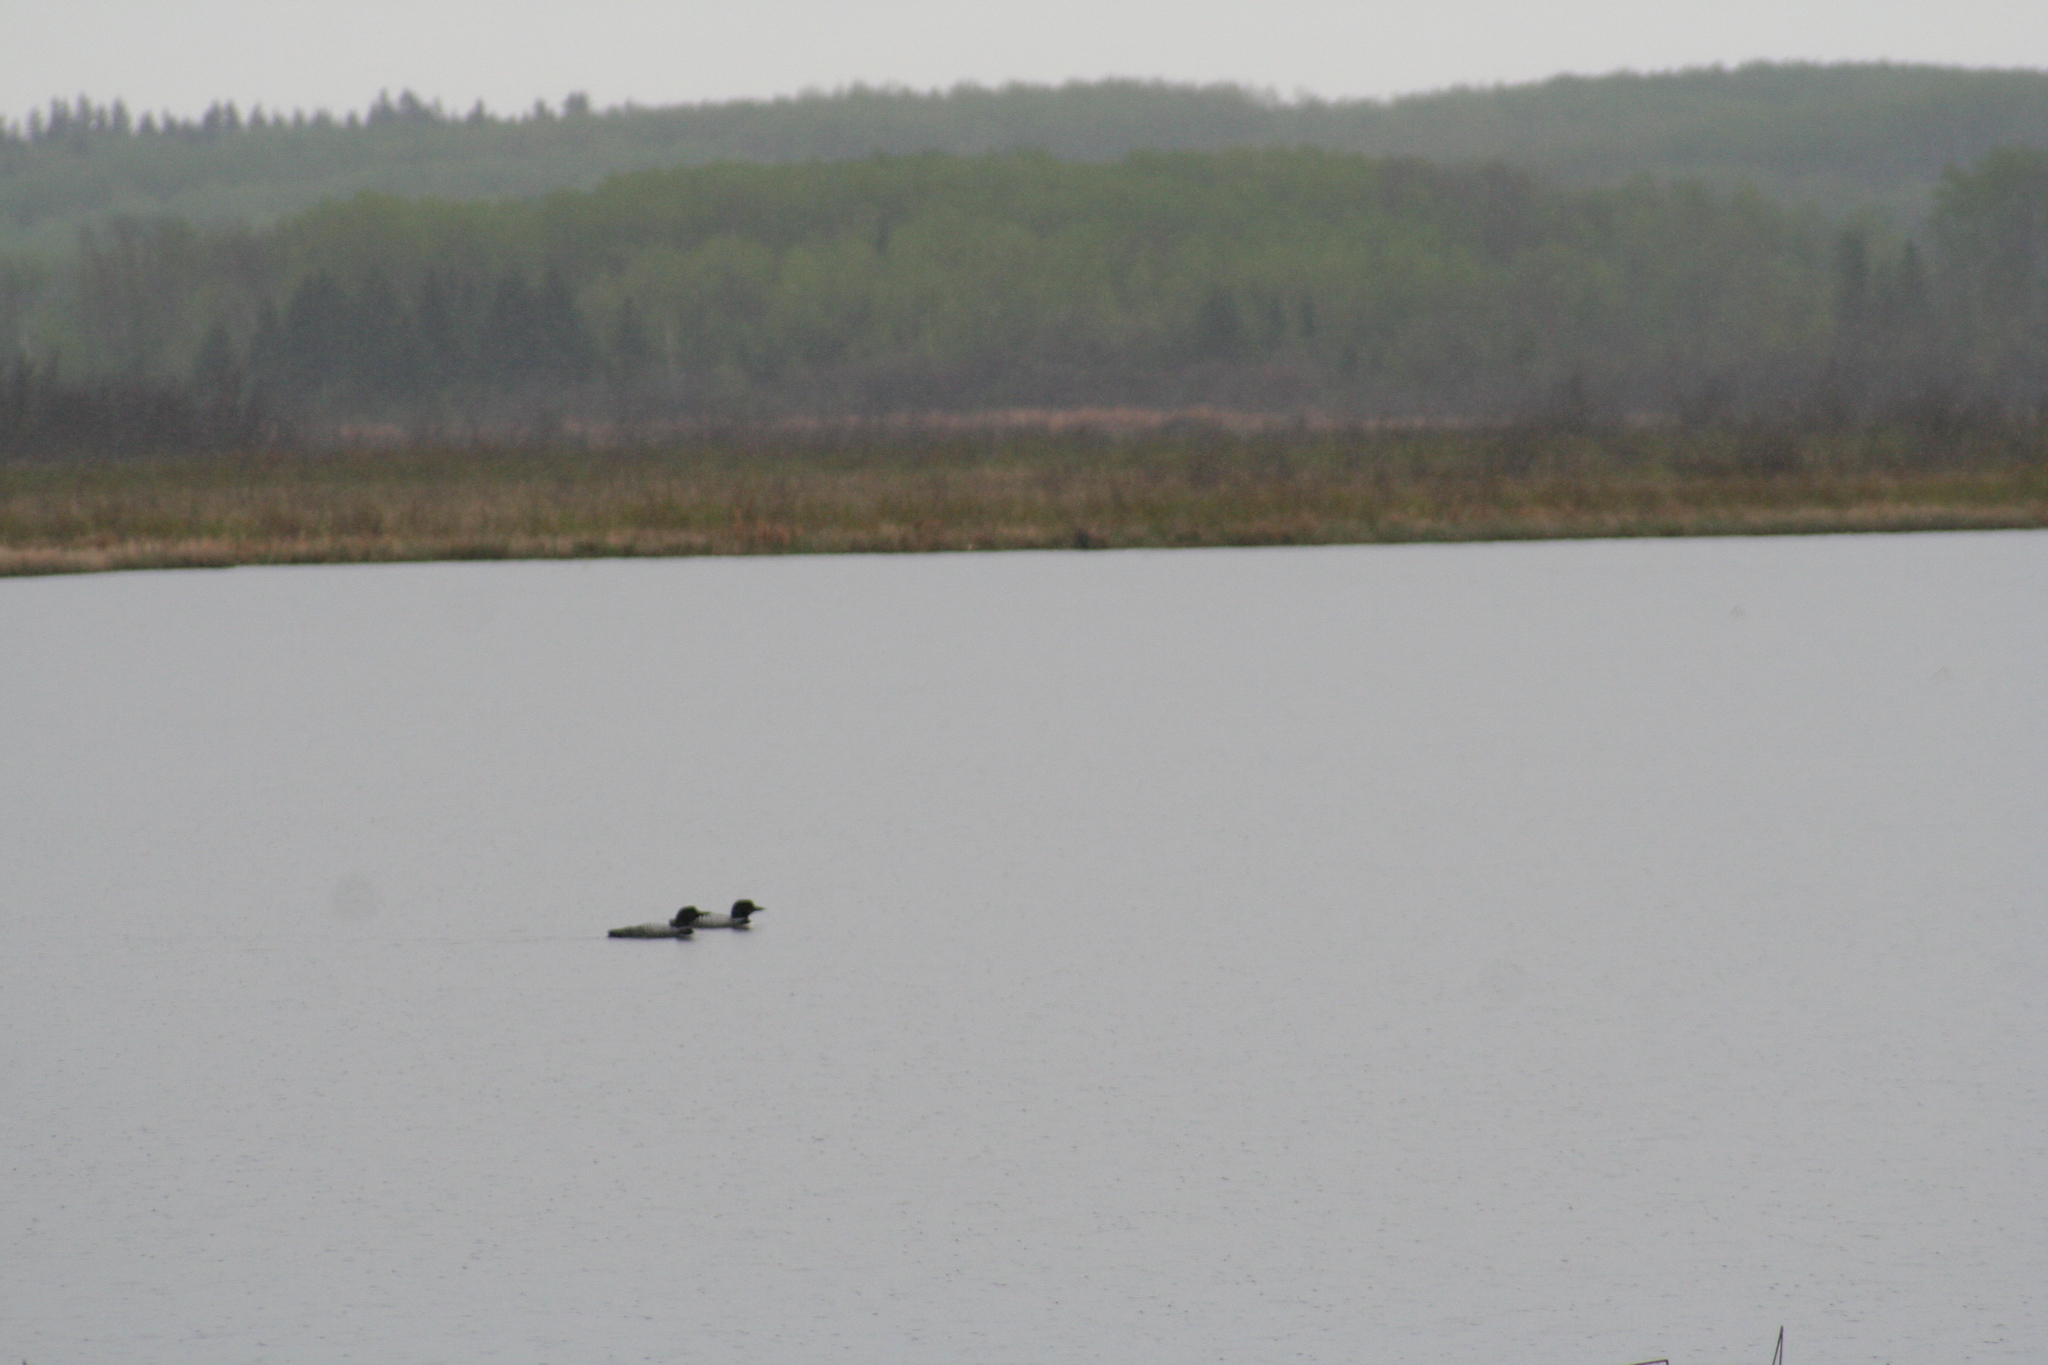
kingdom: Animalia
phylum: Chordata
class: Aves
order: Gaviiformes
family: Gaviidae
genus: Gavia
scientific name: Gavia immer
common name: Common loon
